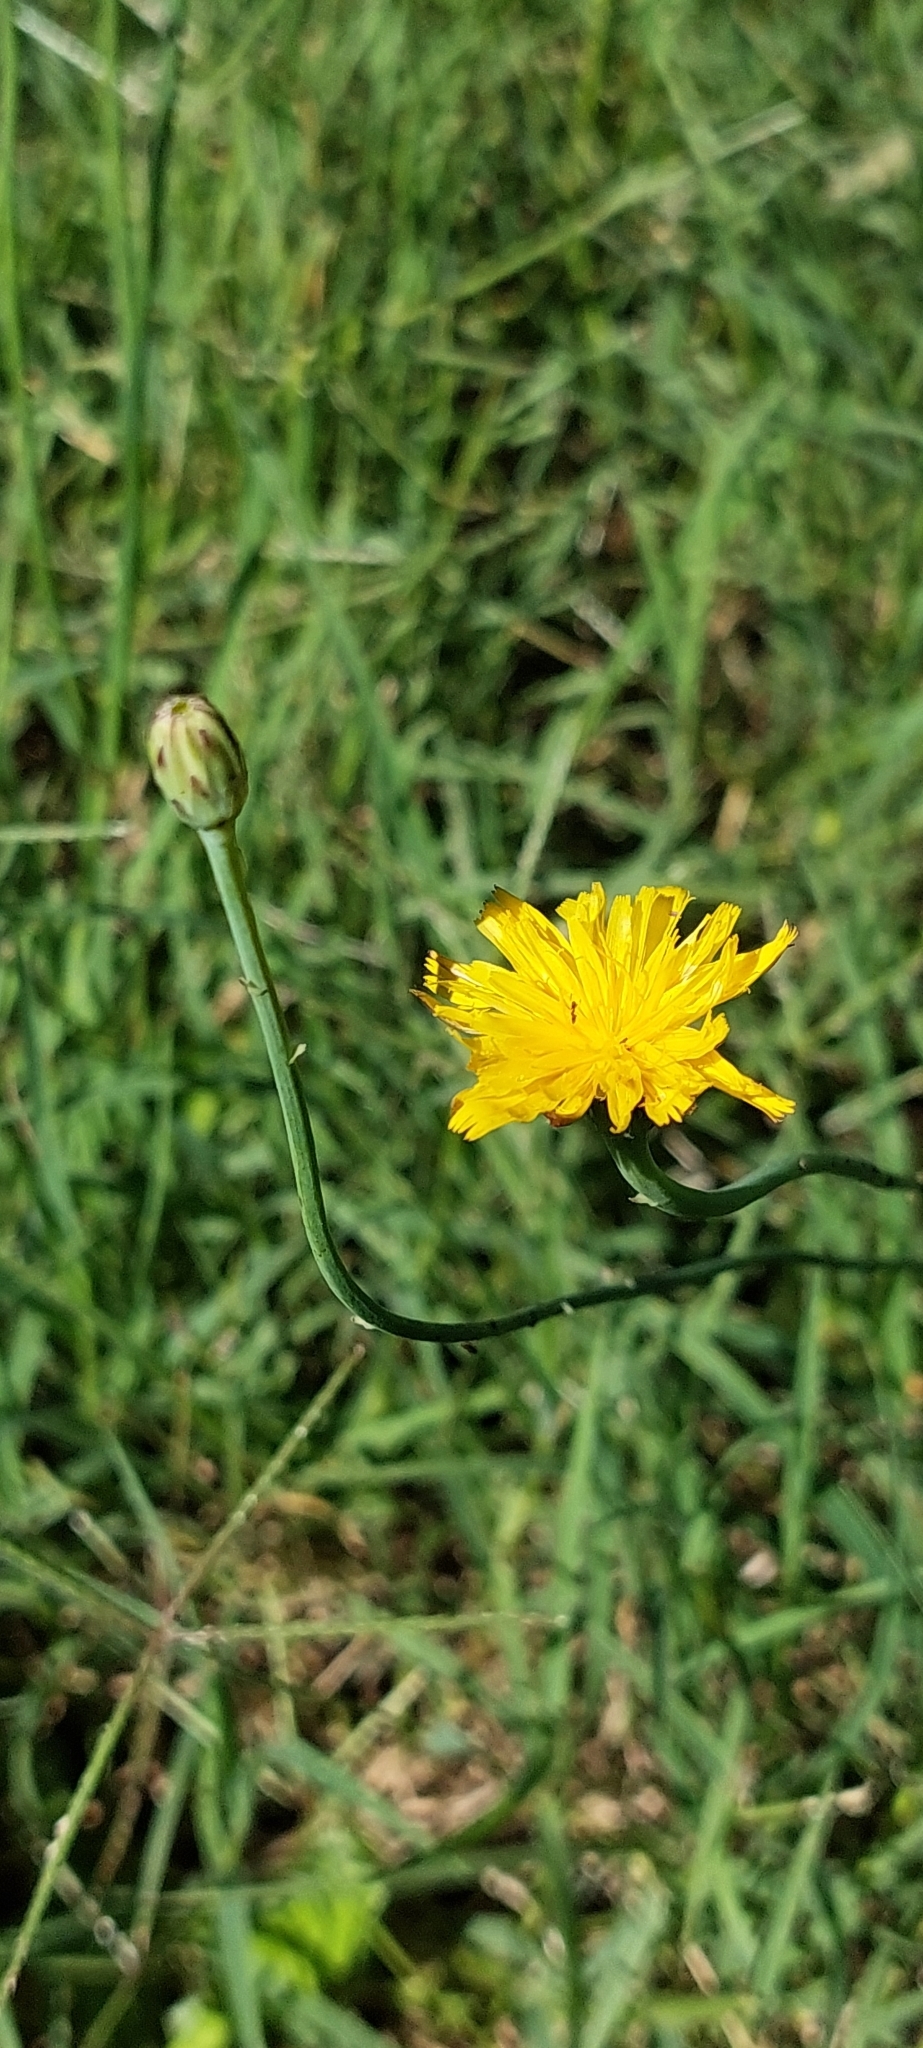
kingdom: Plantae
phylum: Tracheophyta
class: Magnoliopsida
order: Asterales
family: Asteraceae
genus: Hypochaeris
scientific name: Hypochaeris radicata
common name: Flatweed
